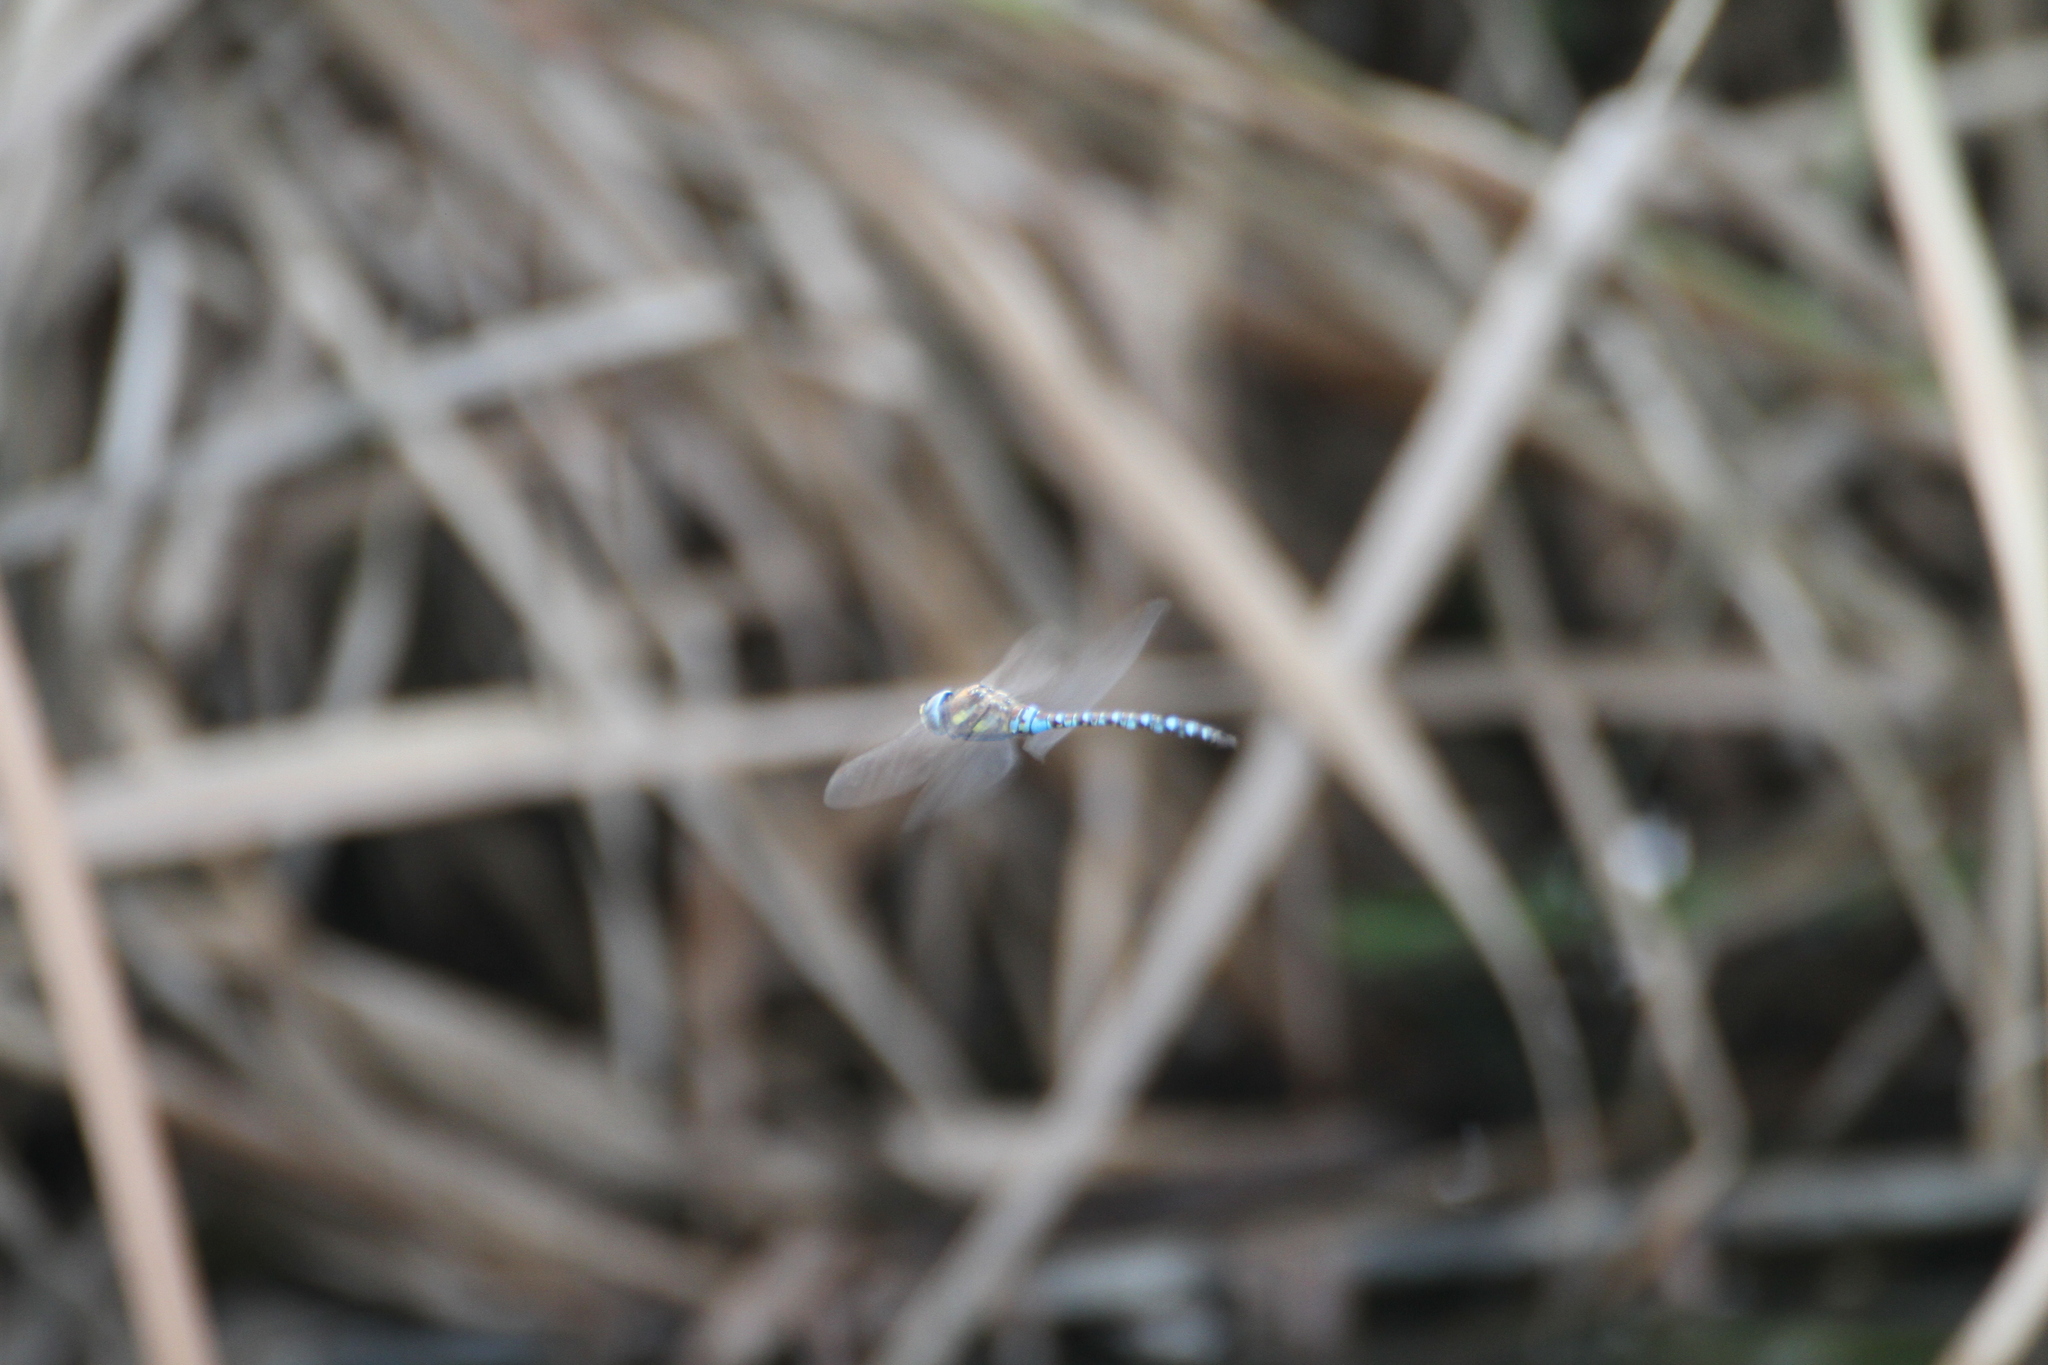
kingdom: Animalia
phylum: Arthropoda
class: Insecta
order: Odonata
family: Aeshnidae
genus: Aeshna
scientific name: Aeshna mixta
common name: Migrant hawker
